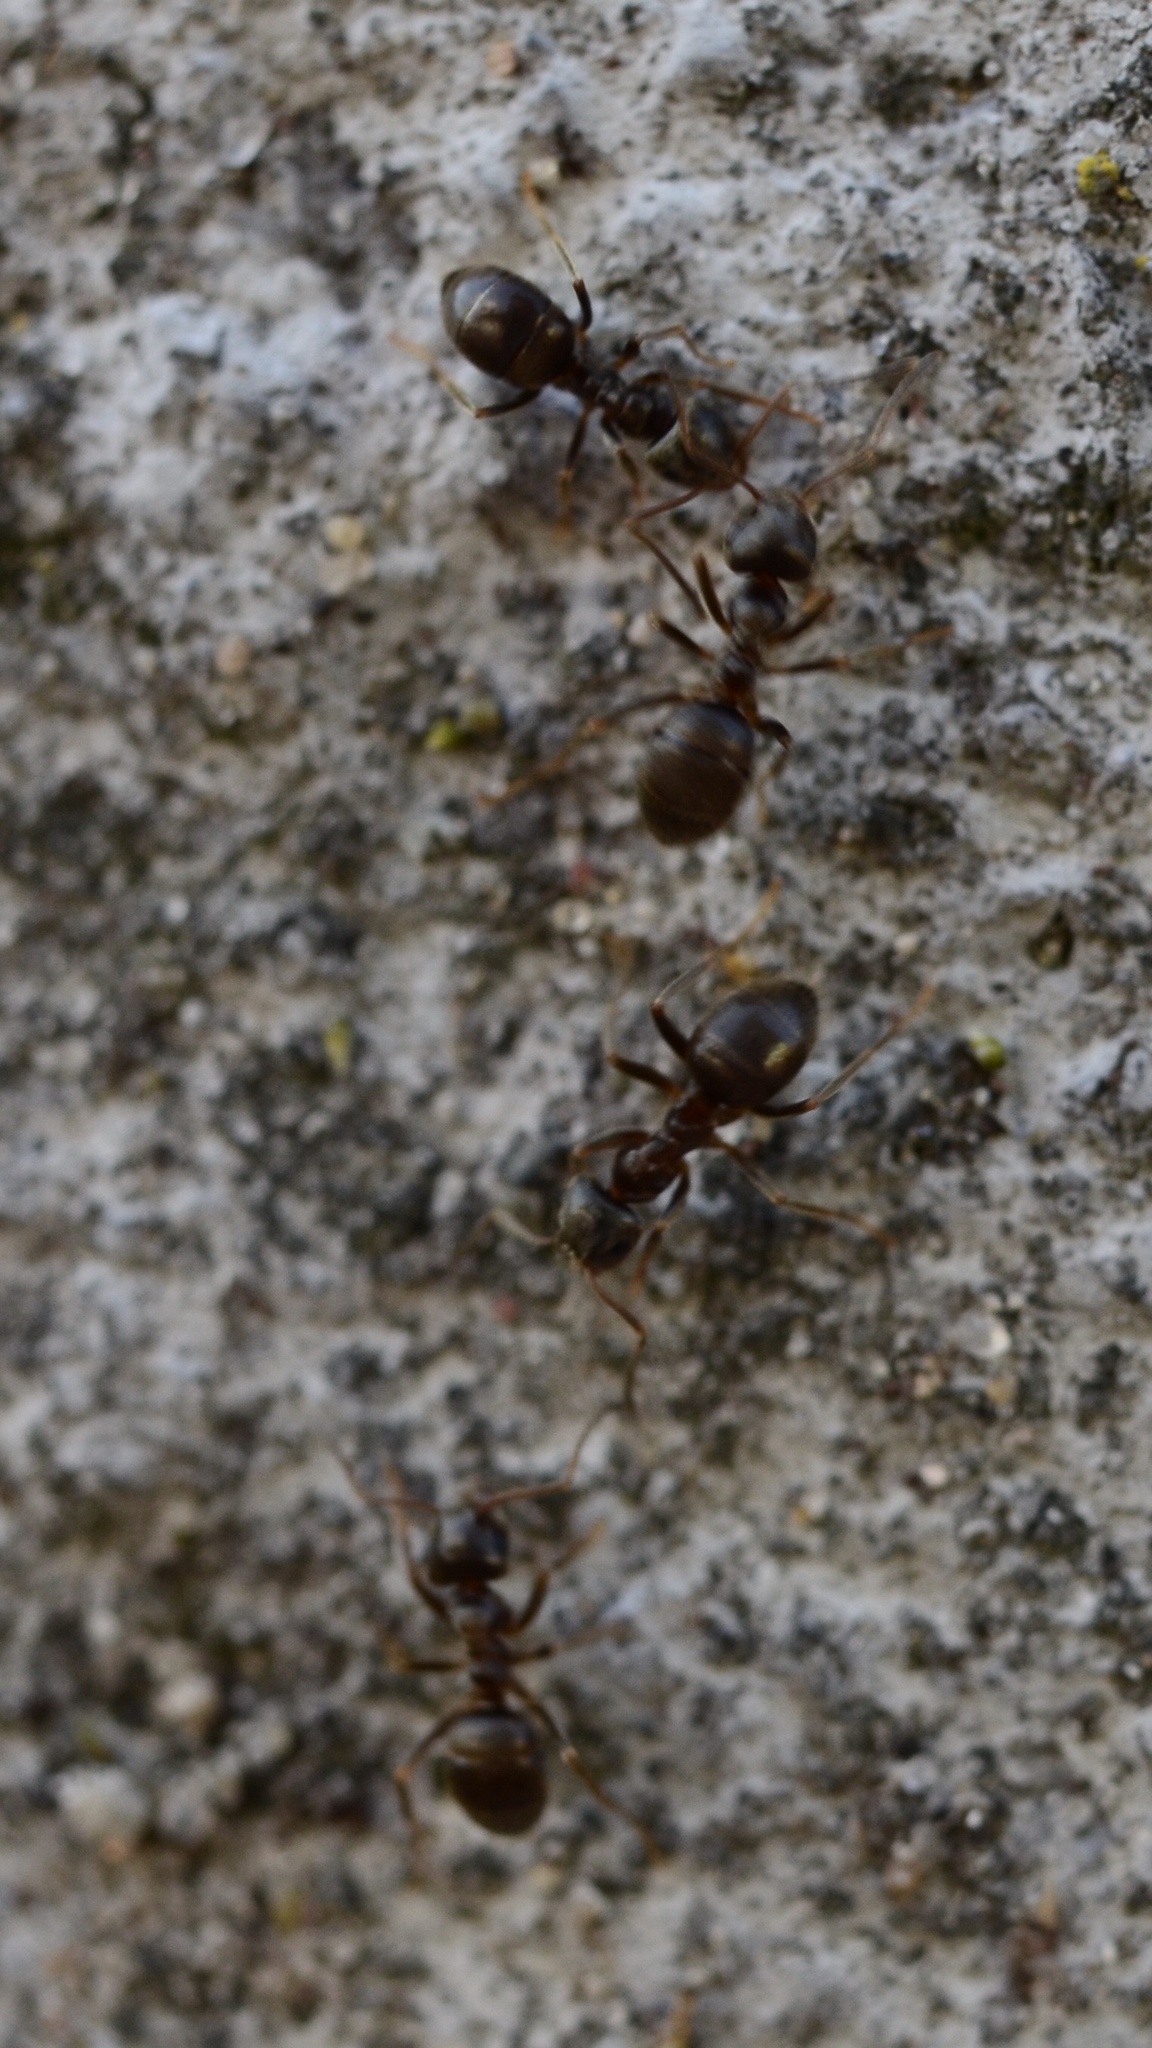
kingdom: Animalia
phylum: Arthropoda
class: Insecta
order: Hymenoptera
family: Formicidae
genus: Lasius
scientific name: Lasius
